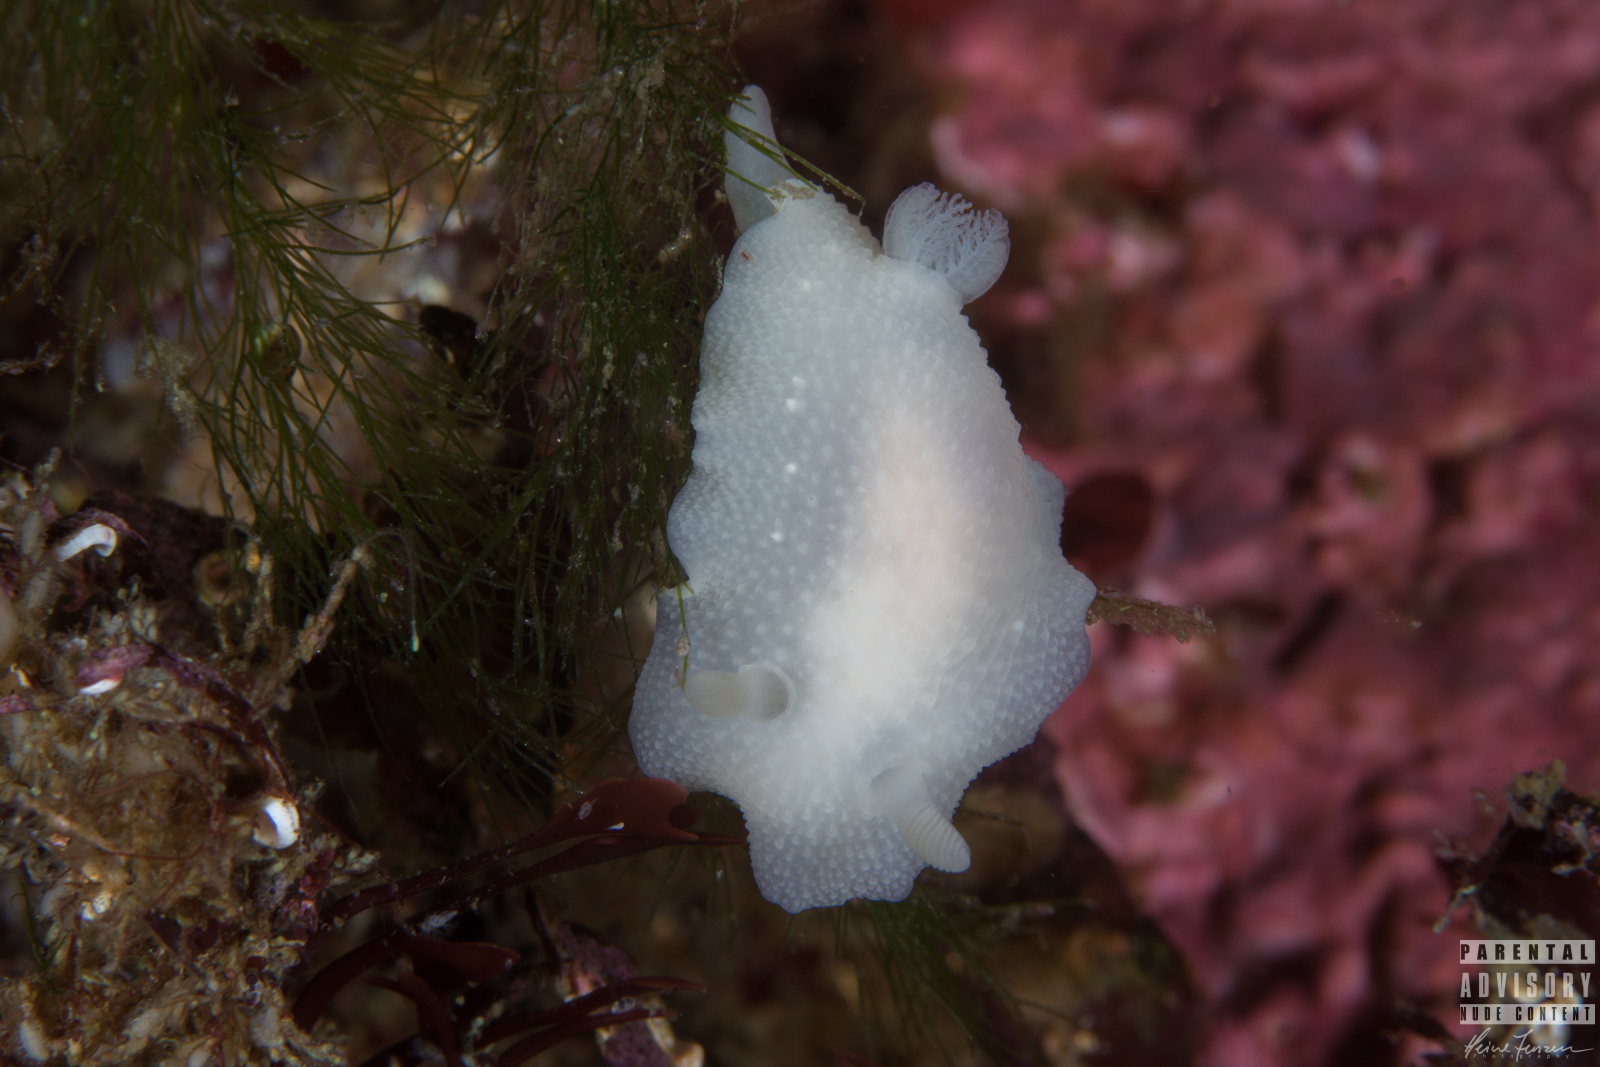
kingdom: Animalia
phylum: Mollusca
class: Gastropoda
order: Nudibranchia
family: Cadlinidae
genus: Cadlina
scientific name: Cadlina laevis
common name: White atlantic cadlina
